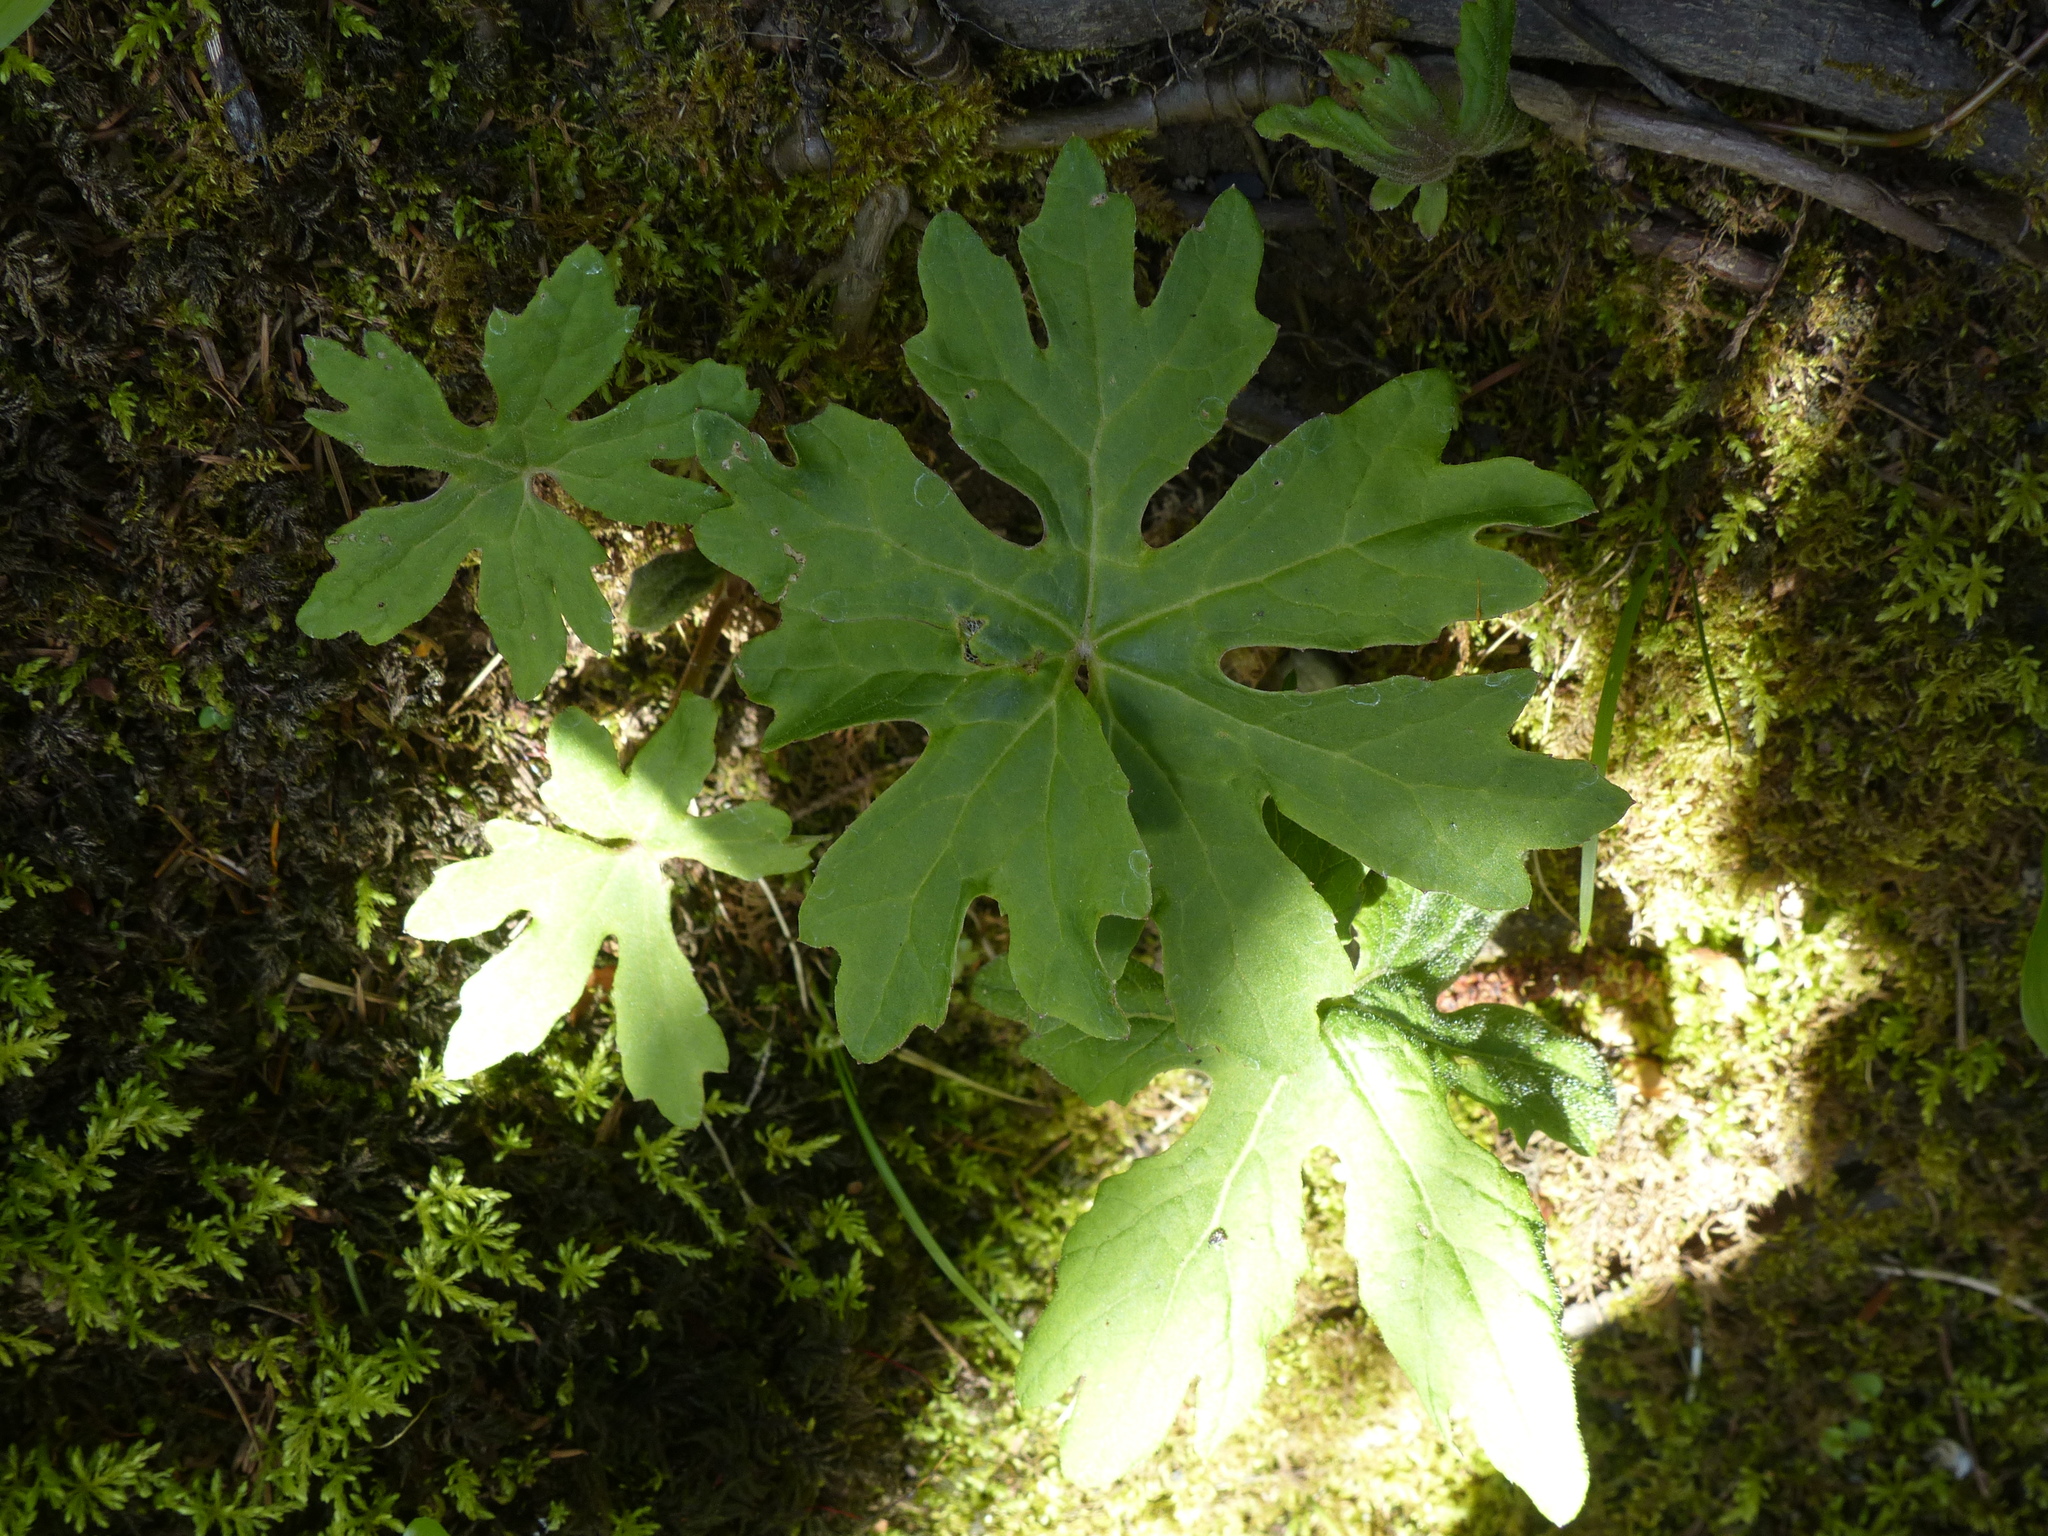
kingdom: Plantae
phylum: Tracheophyta
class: Magnoliopsida
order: Asterales
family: Asteraceae
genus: Petasites
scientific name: Petasites frigidus
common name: Arctic butterbur
